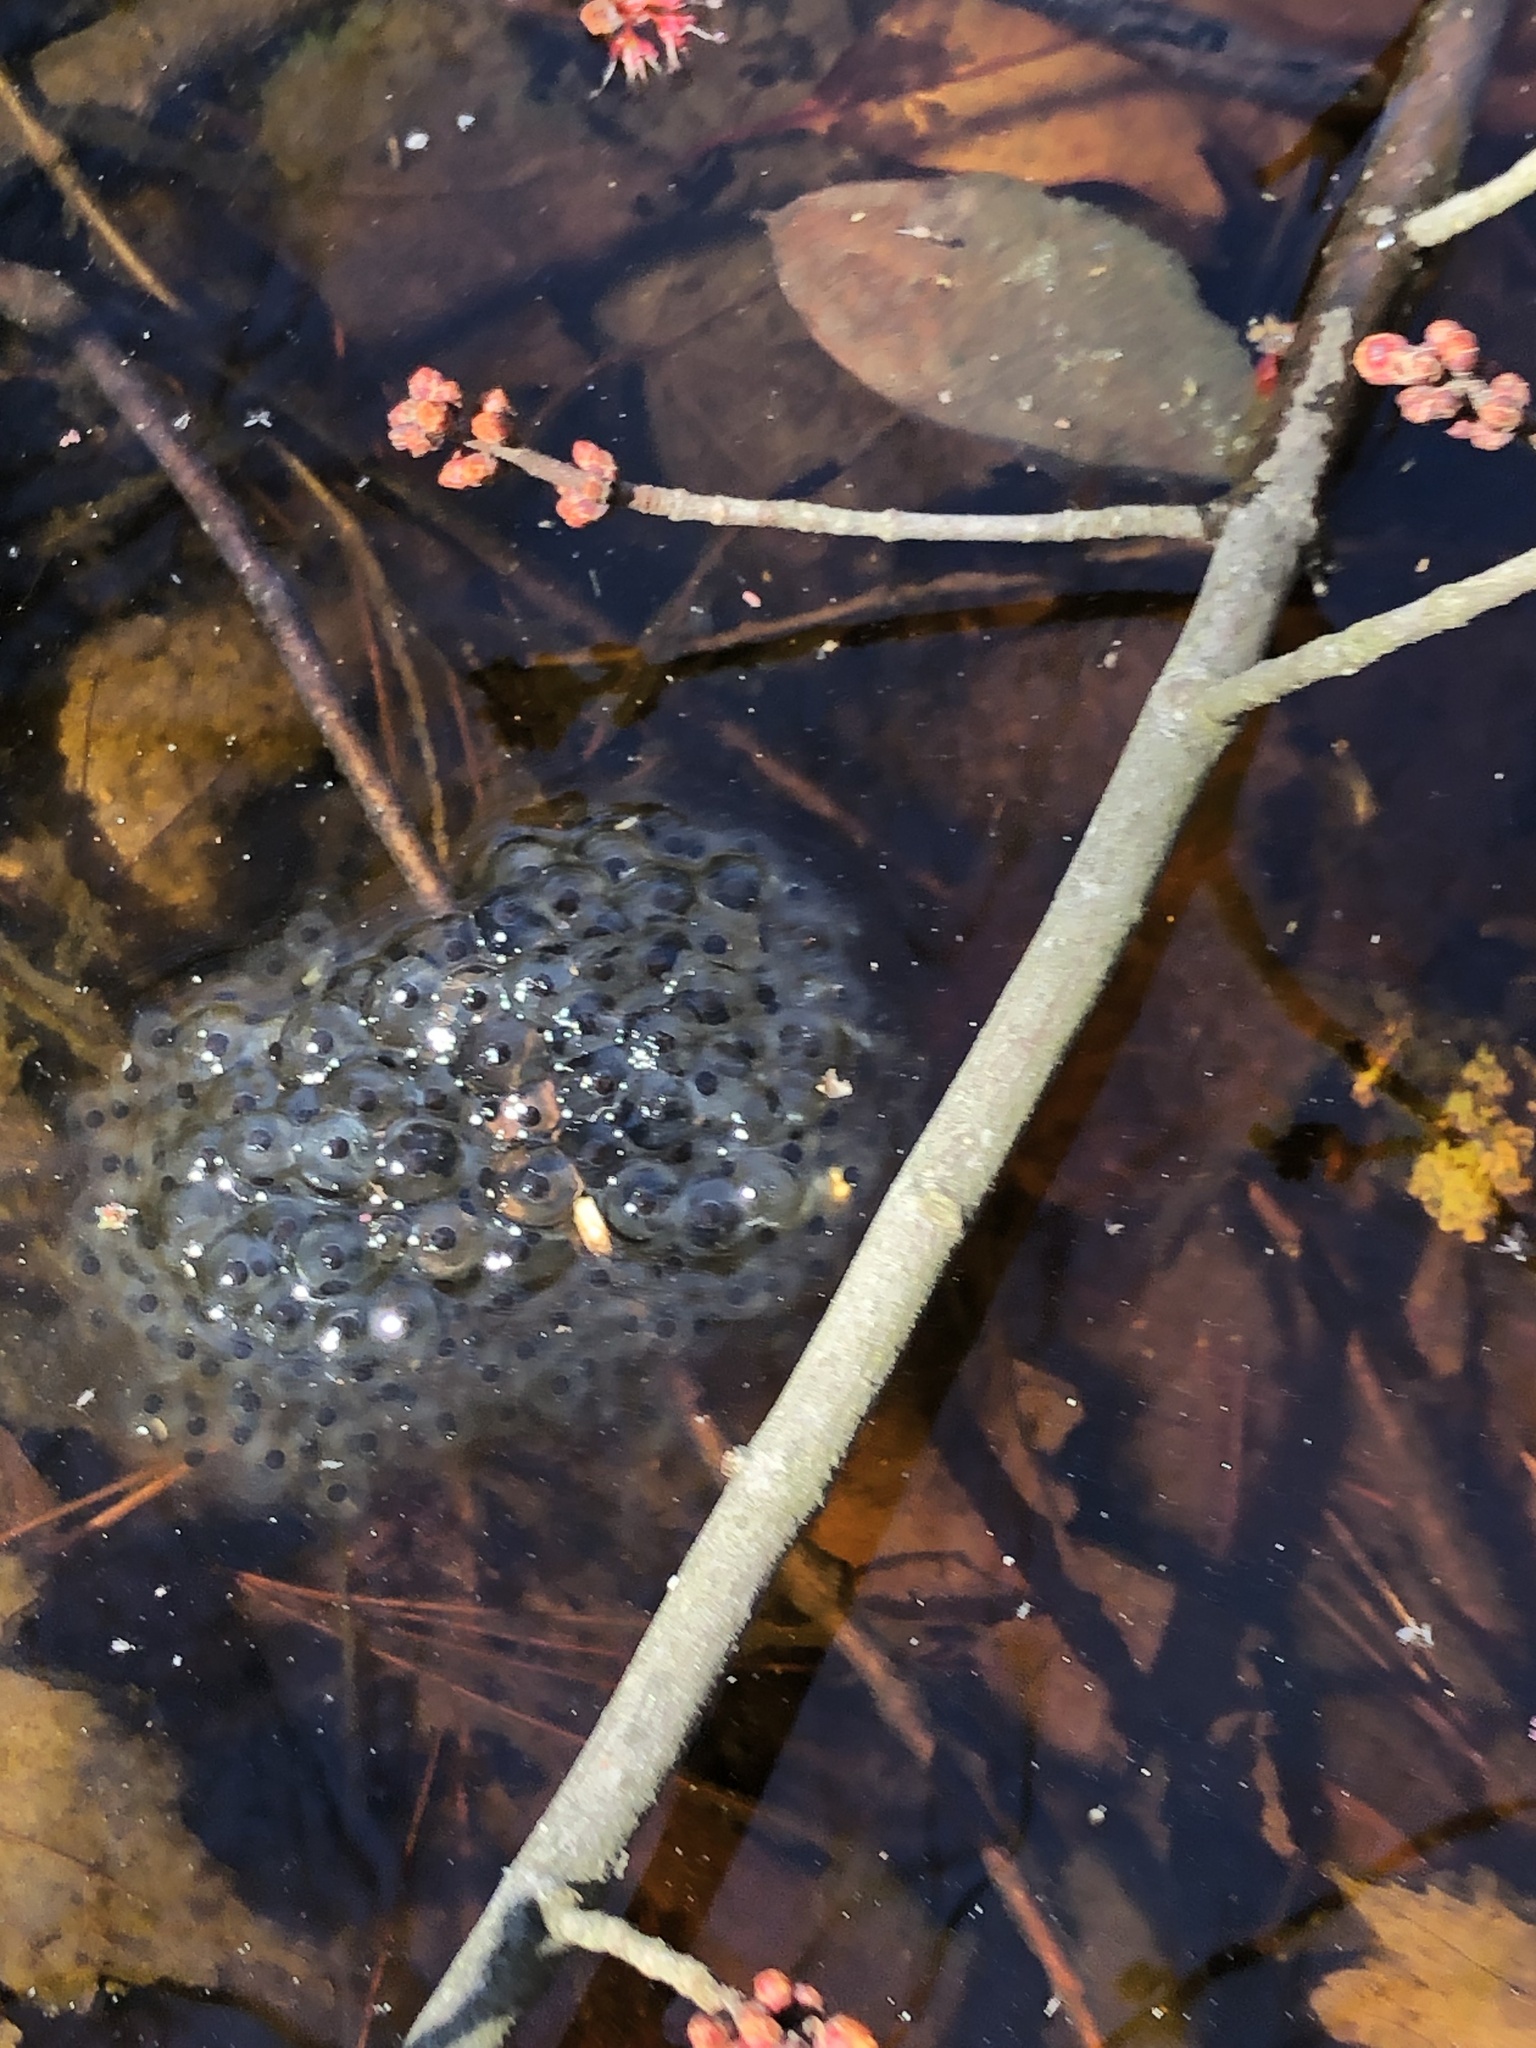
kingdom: Animalia
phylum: Chordata
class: Amphibia
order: Anura
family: Ranidae
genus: Lithobates
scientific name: Lithobates sylvaticus
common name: Wood frog
